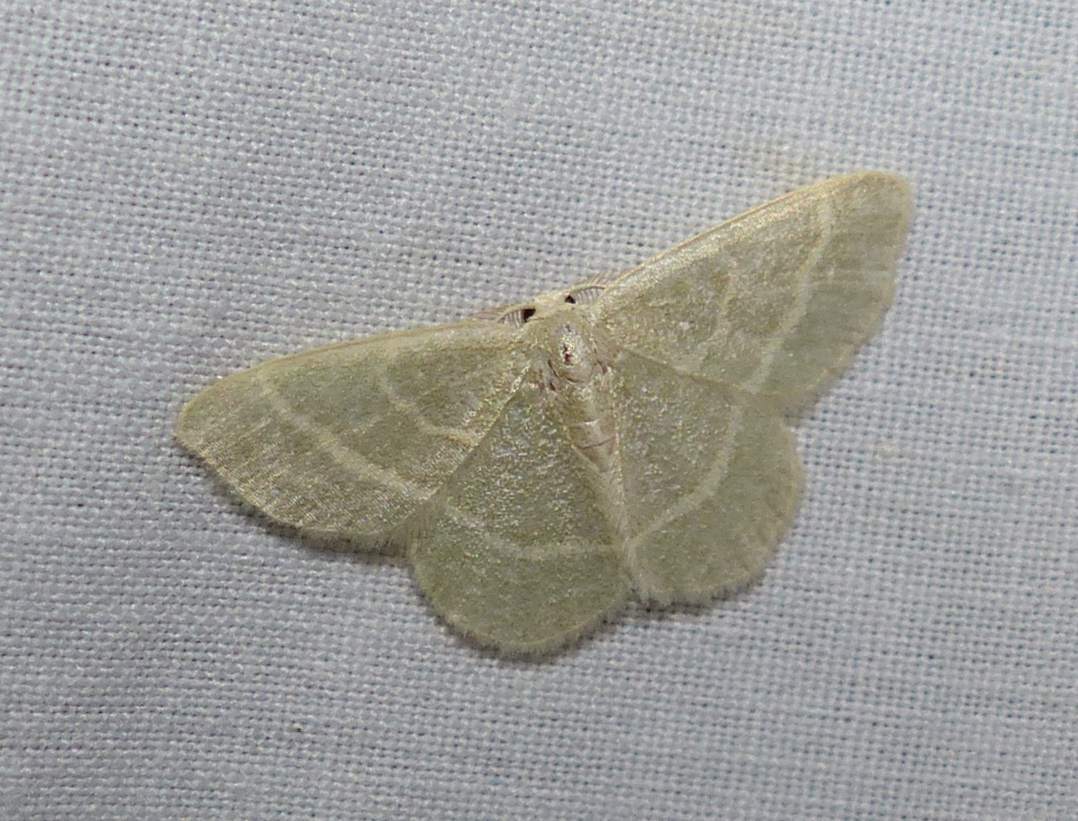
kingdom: Animalia
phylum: Arthropoda
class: Insecta
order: Lepidoptera
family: Geometridae
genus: Chlorochlamys
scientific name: Chlorochlamys chloroleucaria
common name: Blackberry looper
